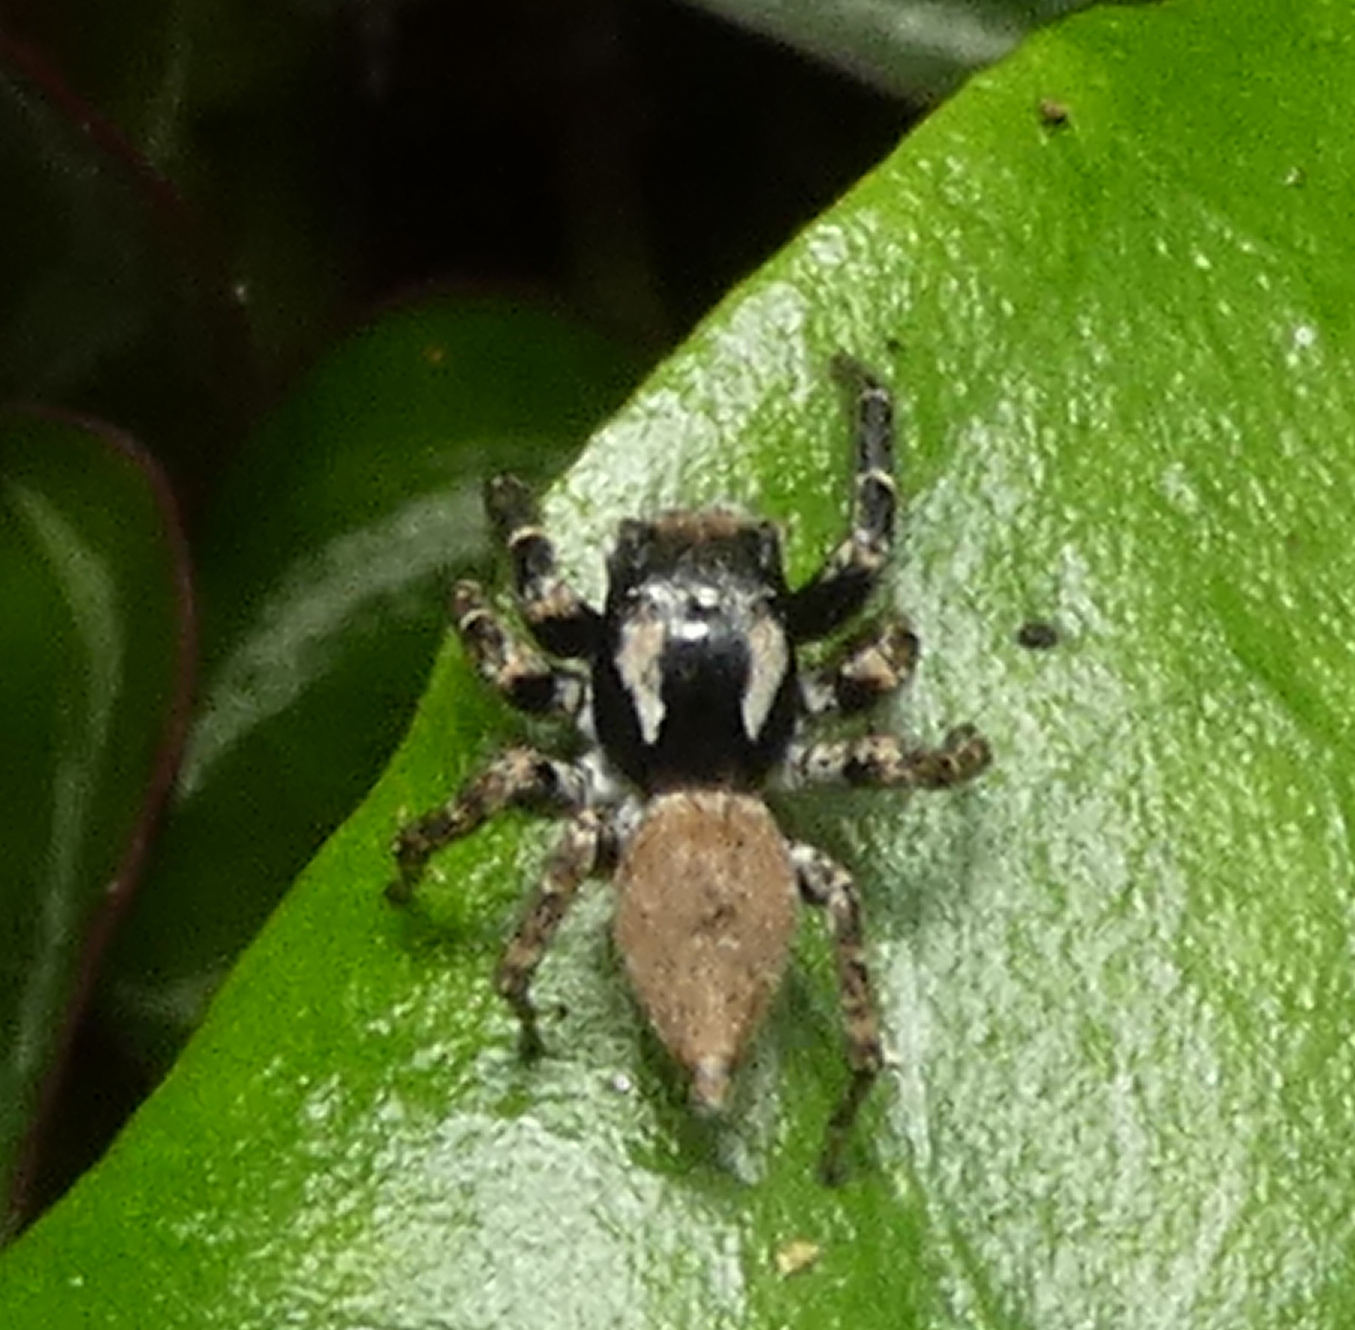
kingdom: Animalia
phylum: Arthropoda
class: Arachnida
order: Araneae
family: Salticidae
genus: Sumampattus
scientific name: Sumampattus quinqueradiatus
